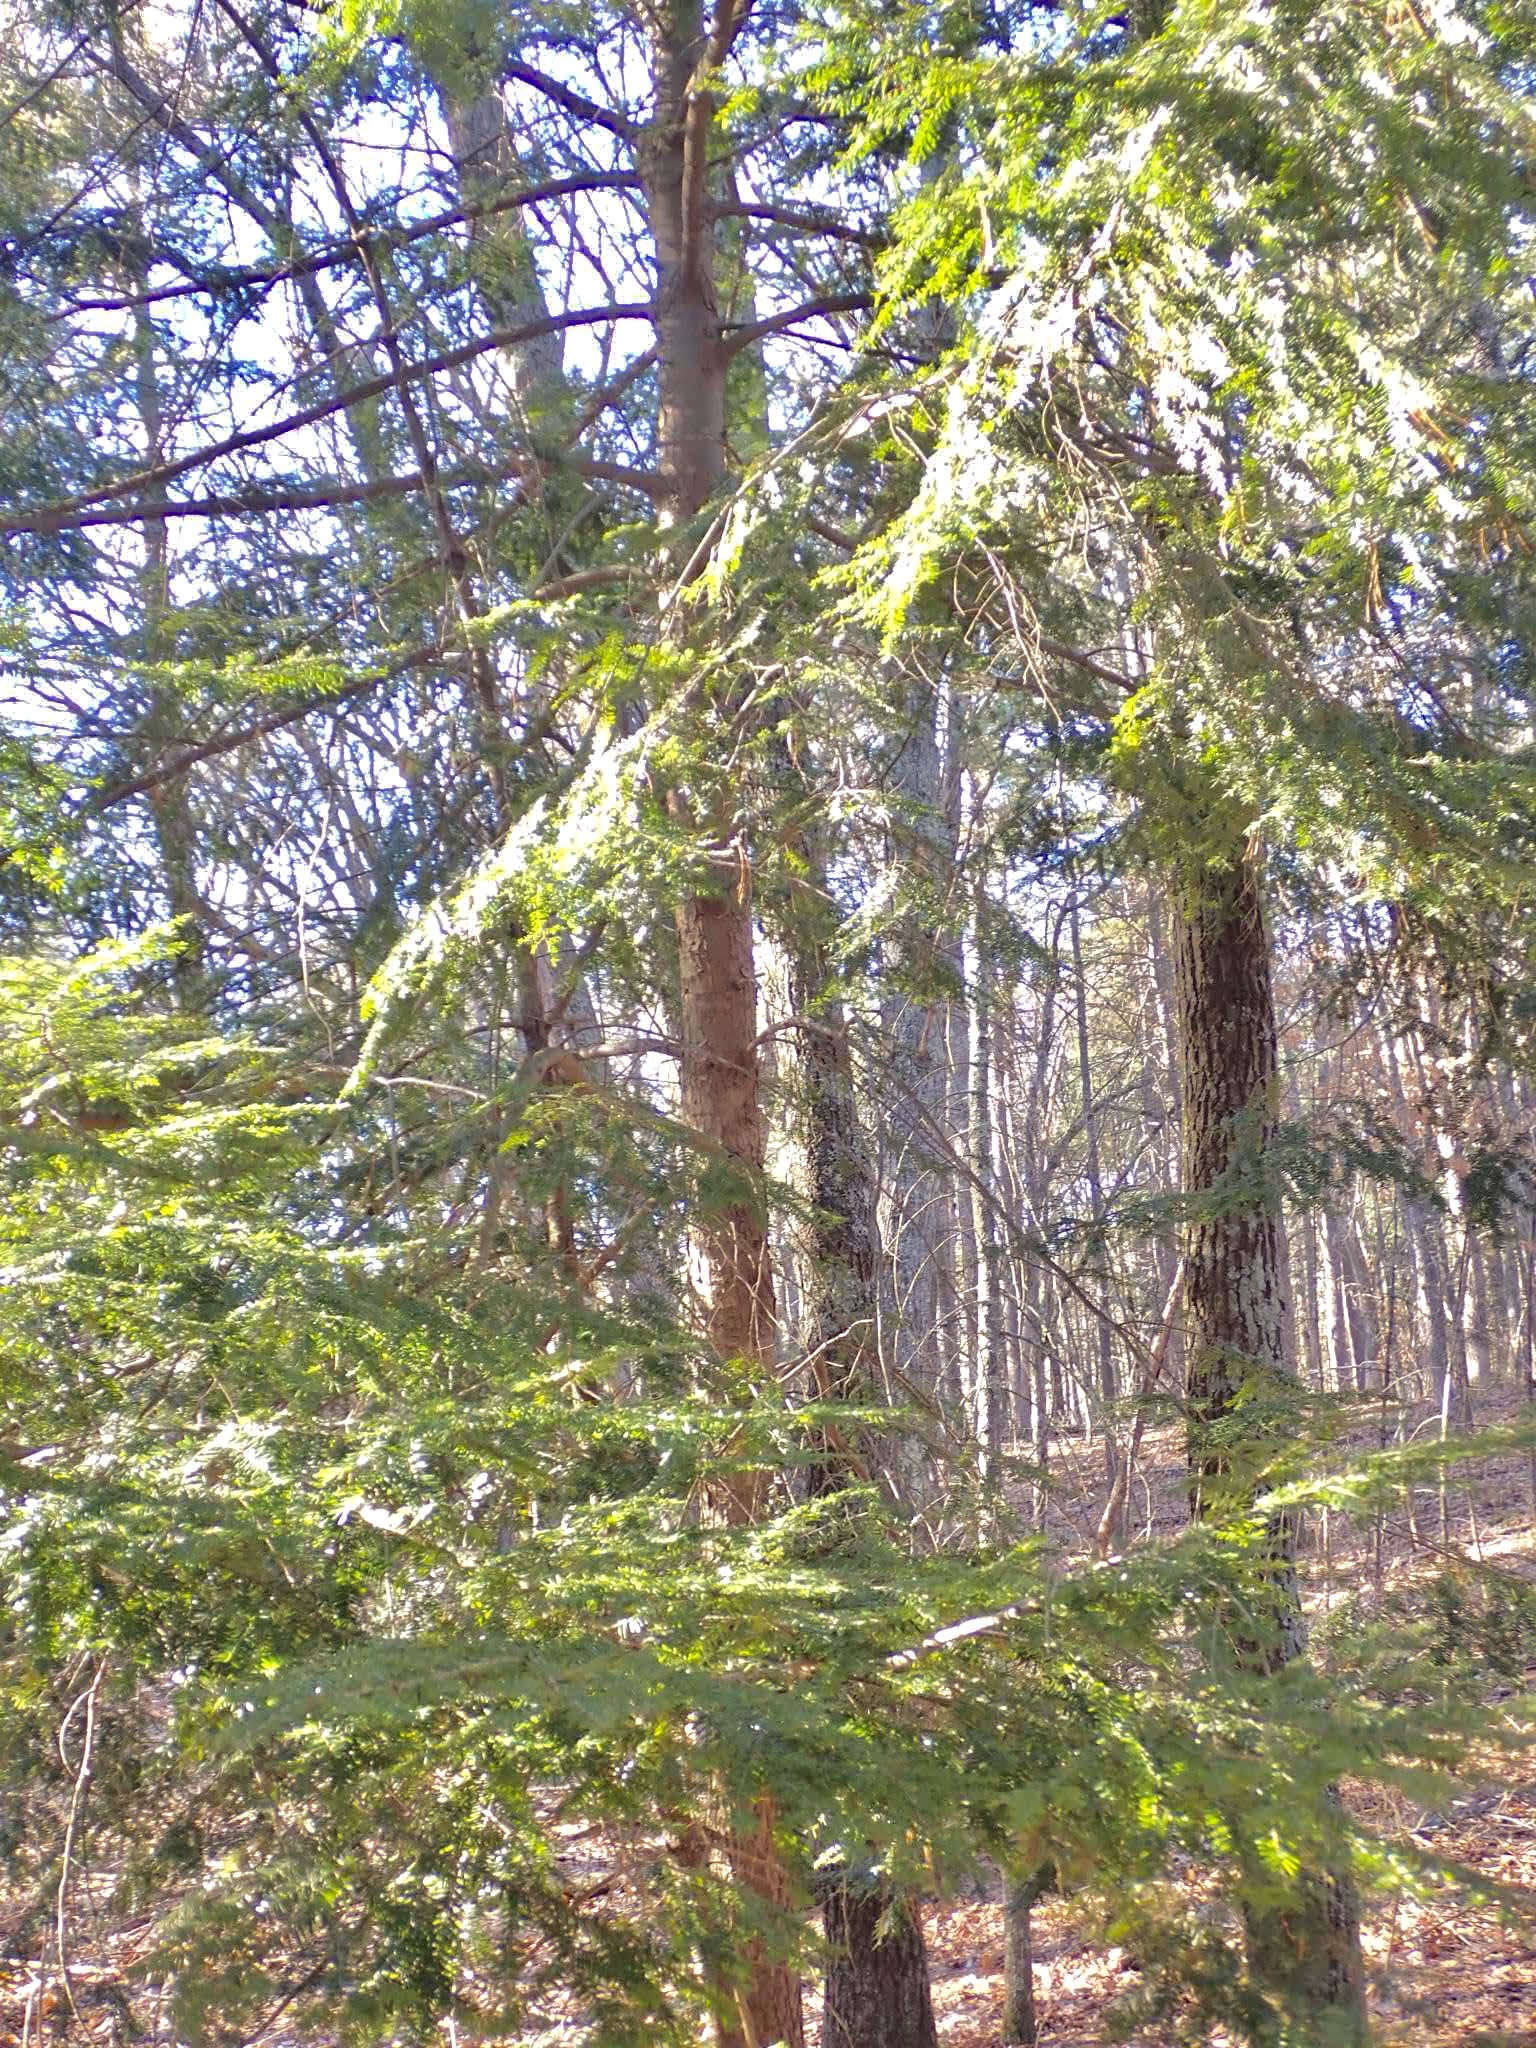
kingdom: Plantae
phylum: Tracheophyta
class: Pinopsida
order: Pinales
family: Pinaceae
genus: Tsuga
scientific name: Tsuga canadensis
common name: Eastern hemlock
